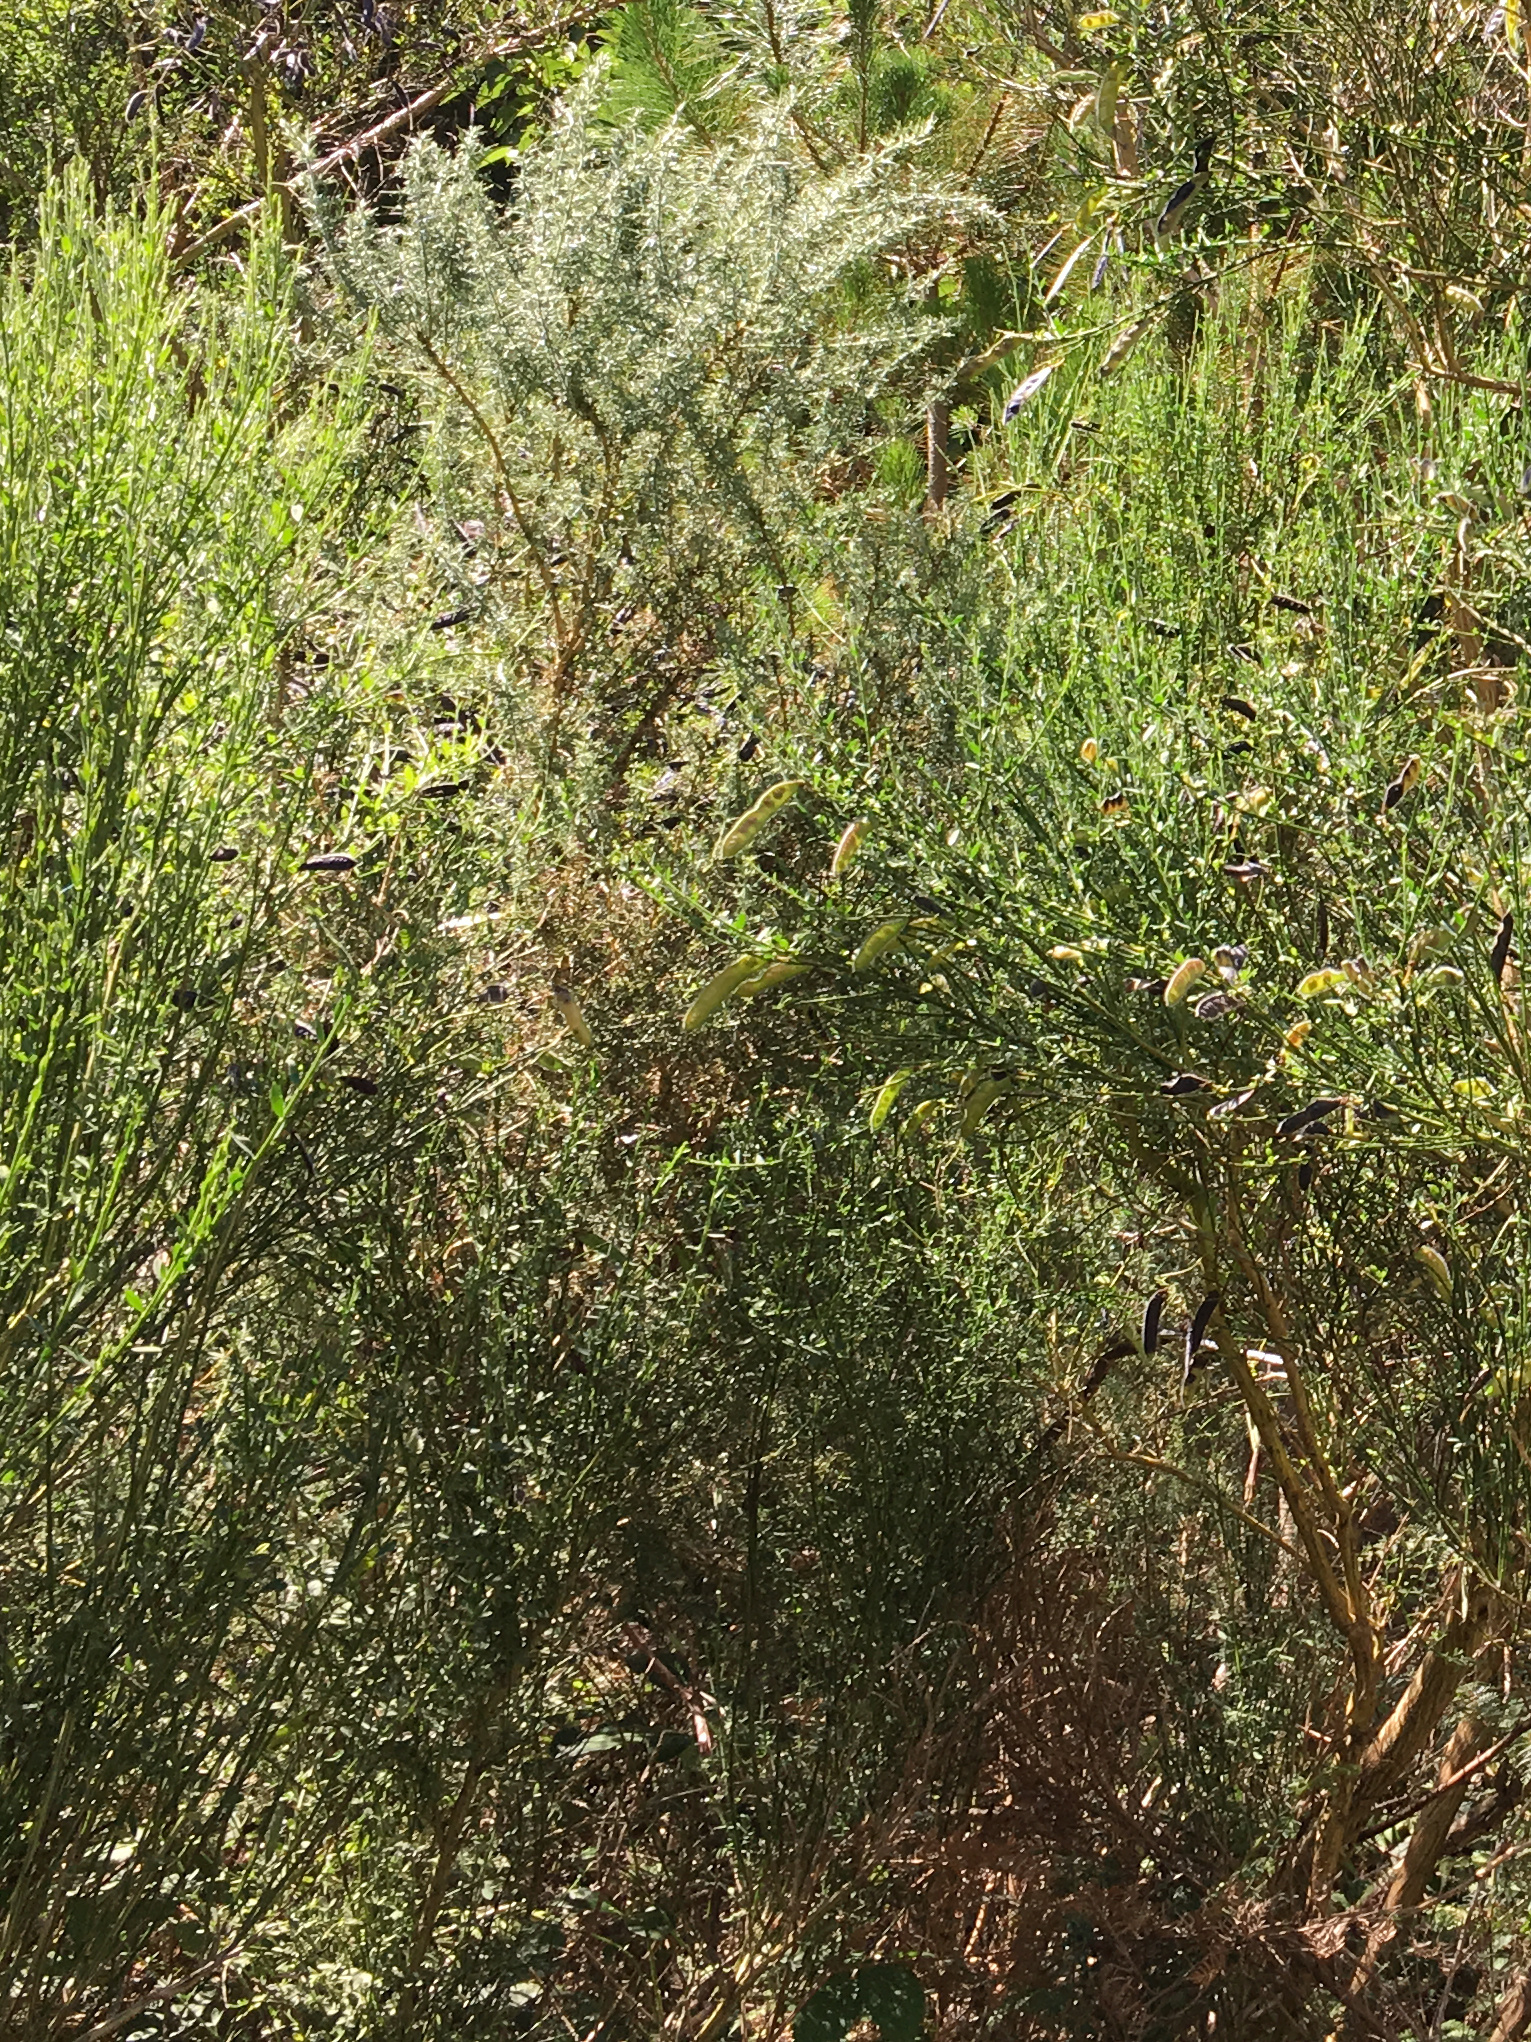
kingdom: Plantae
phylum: Tracheophyta
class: Magnoliopsida
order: Fabales
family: Fabaceae
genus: Ulex
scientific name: Ulex europaeus
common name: Common gorse
